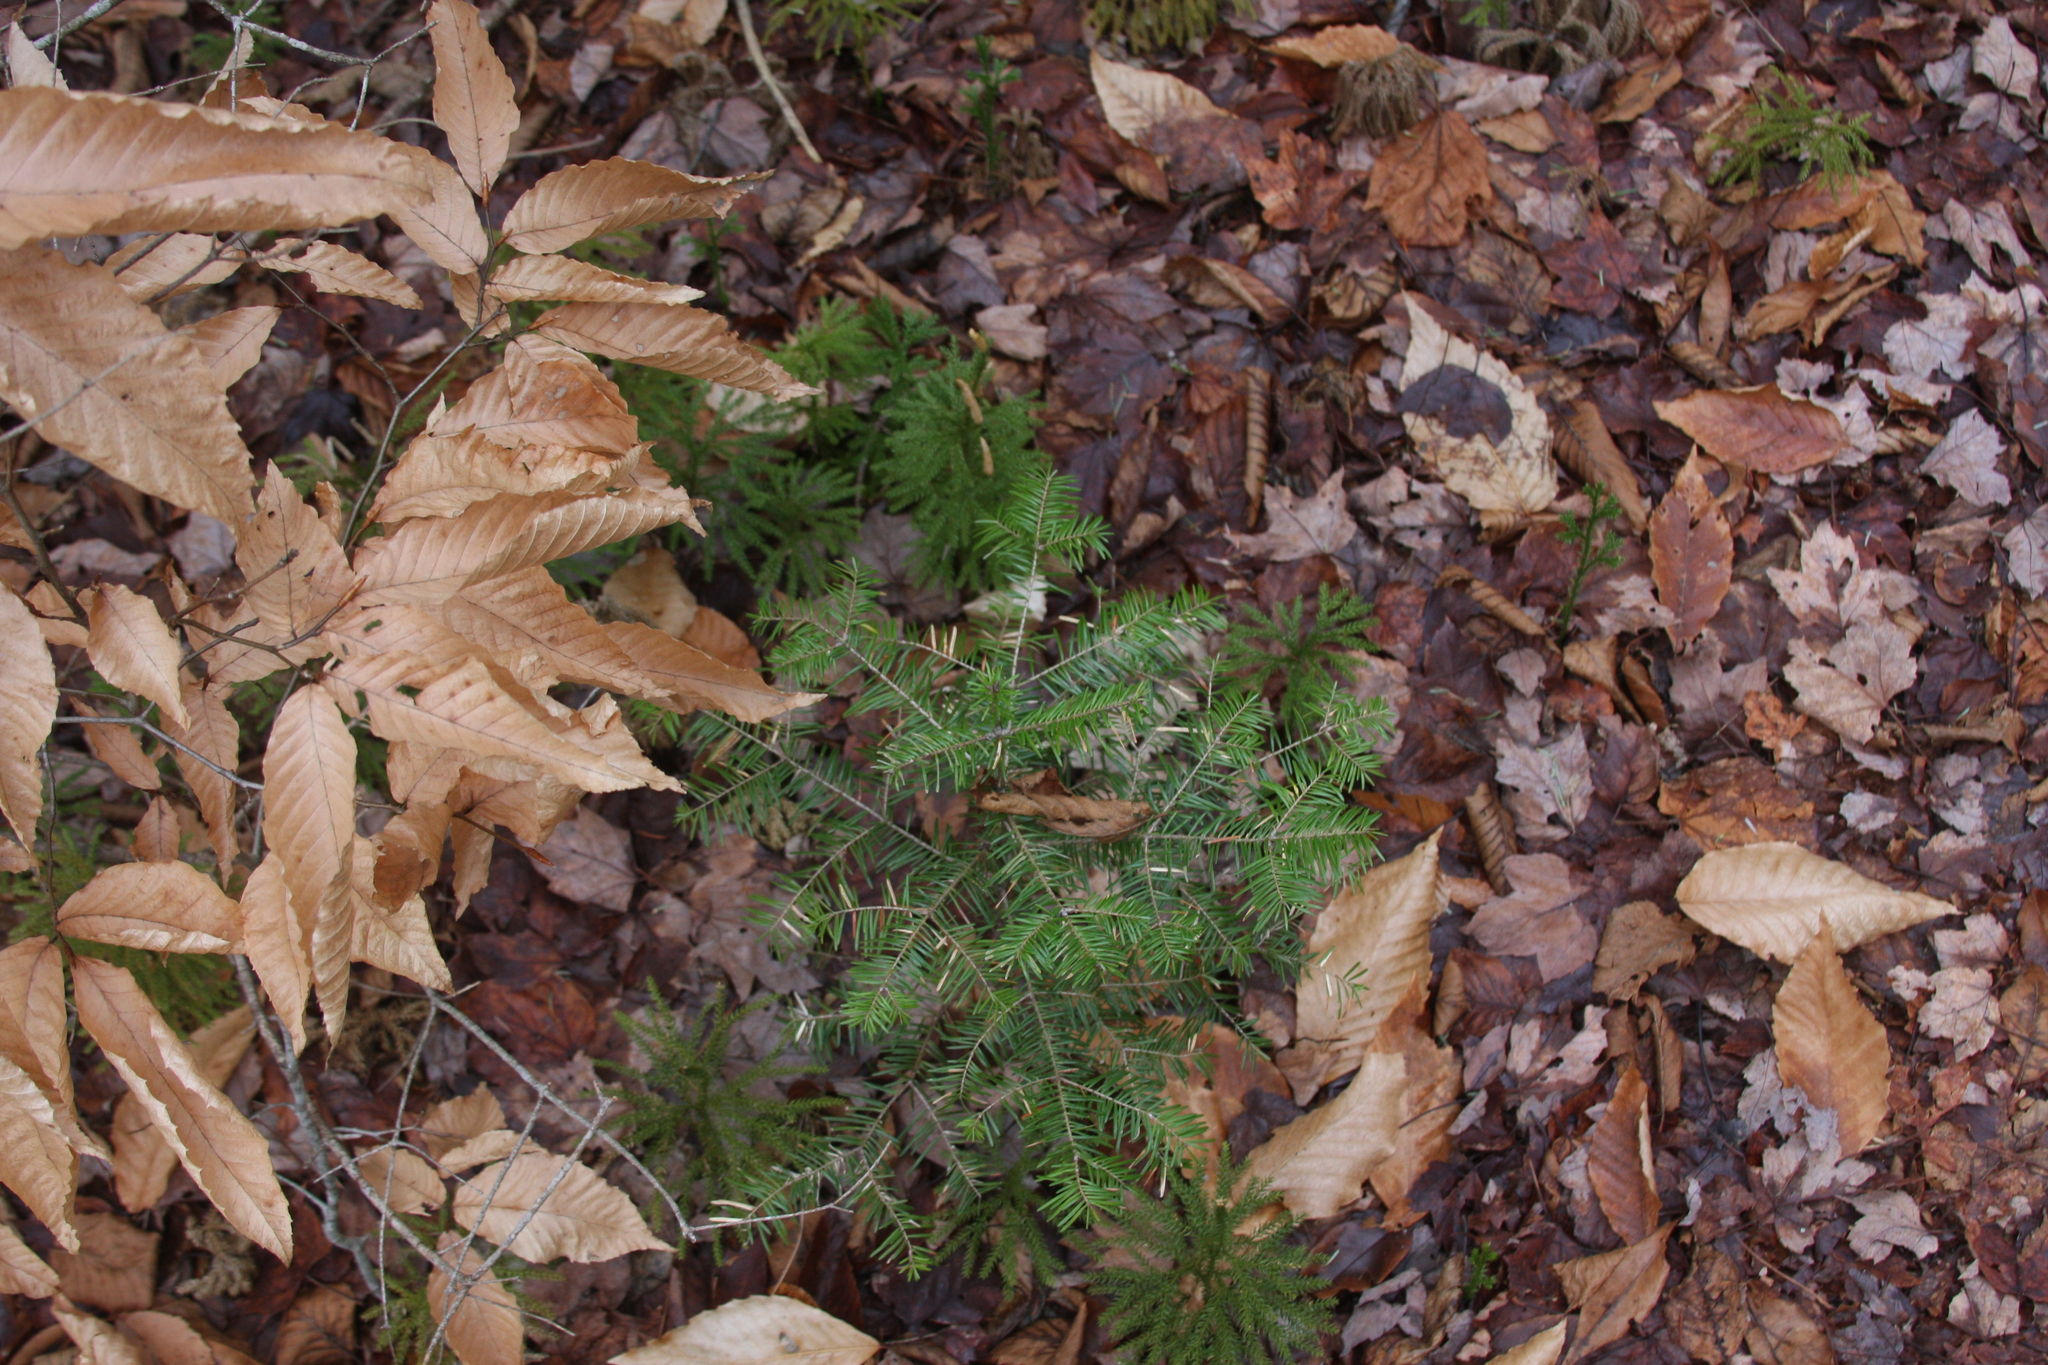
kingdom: Plantae
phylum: Tracheophyta
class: Pinopsida
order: Pinales
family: Pinaceae
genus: Abies
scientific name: Abies balsamea
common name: Balsam fir
